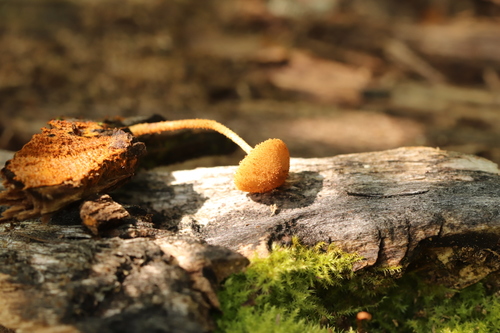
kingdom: Fungi
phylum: Basidiomycota
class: Agaricomycetes
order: Agaricales
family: Tubariaceae
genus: Flammulaster
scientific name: Flammulaster limulatus
